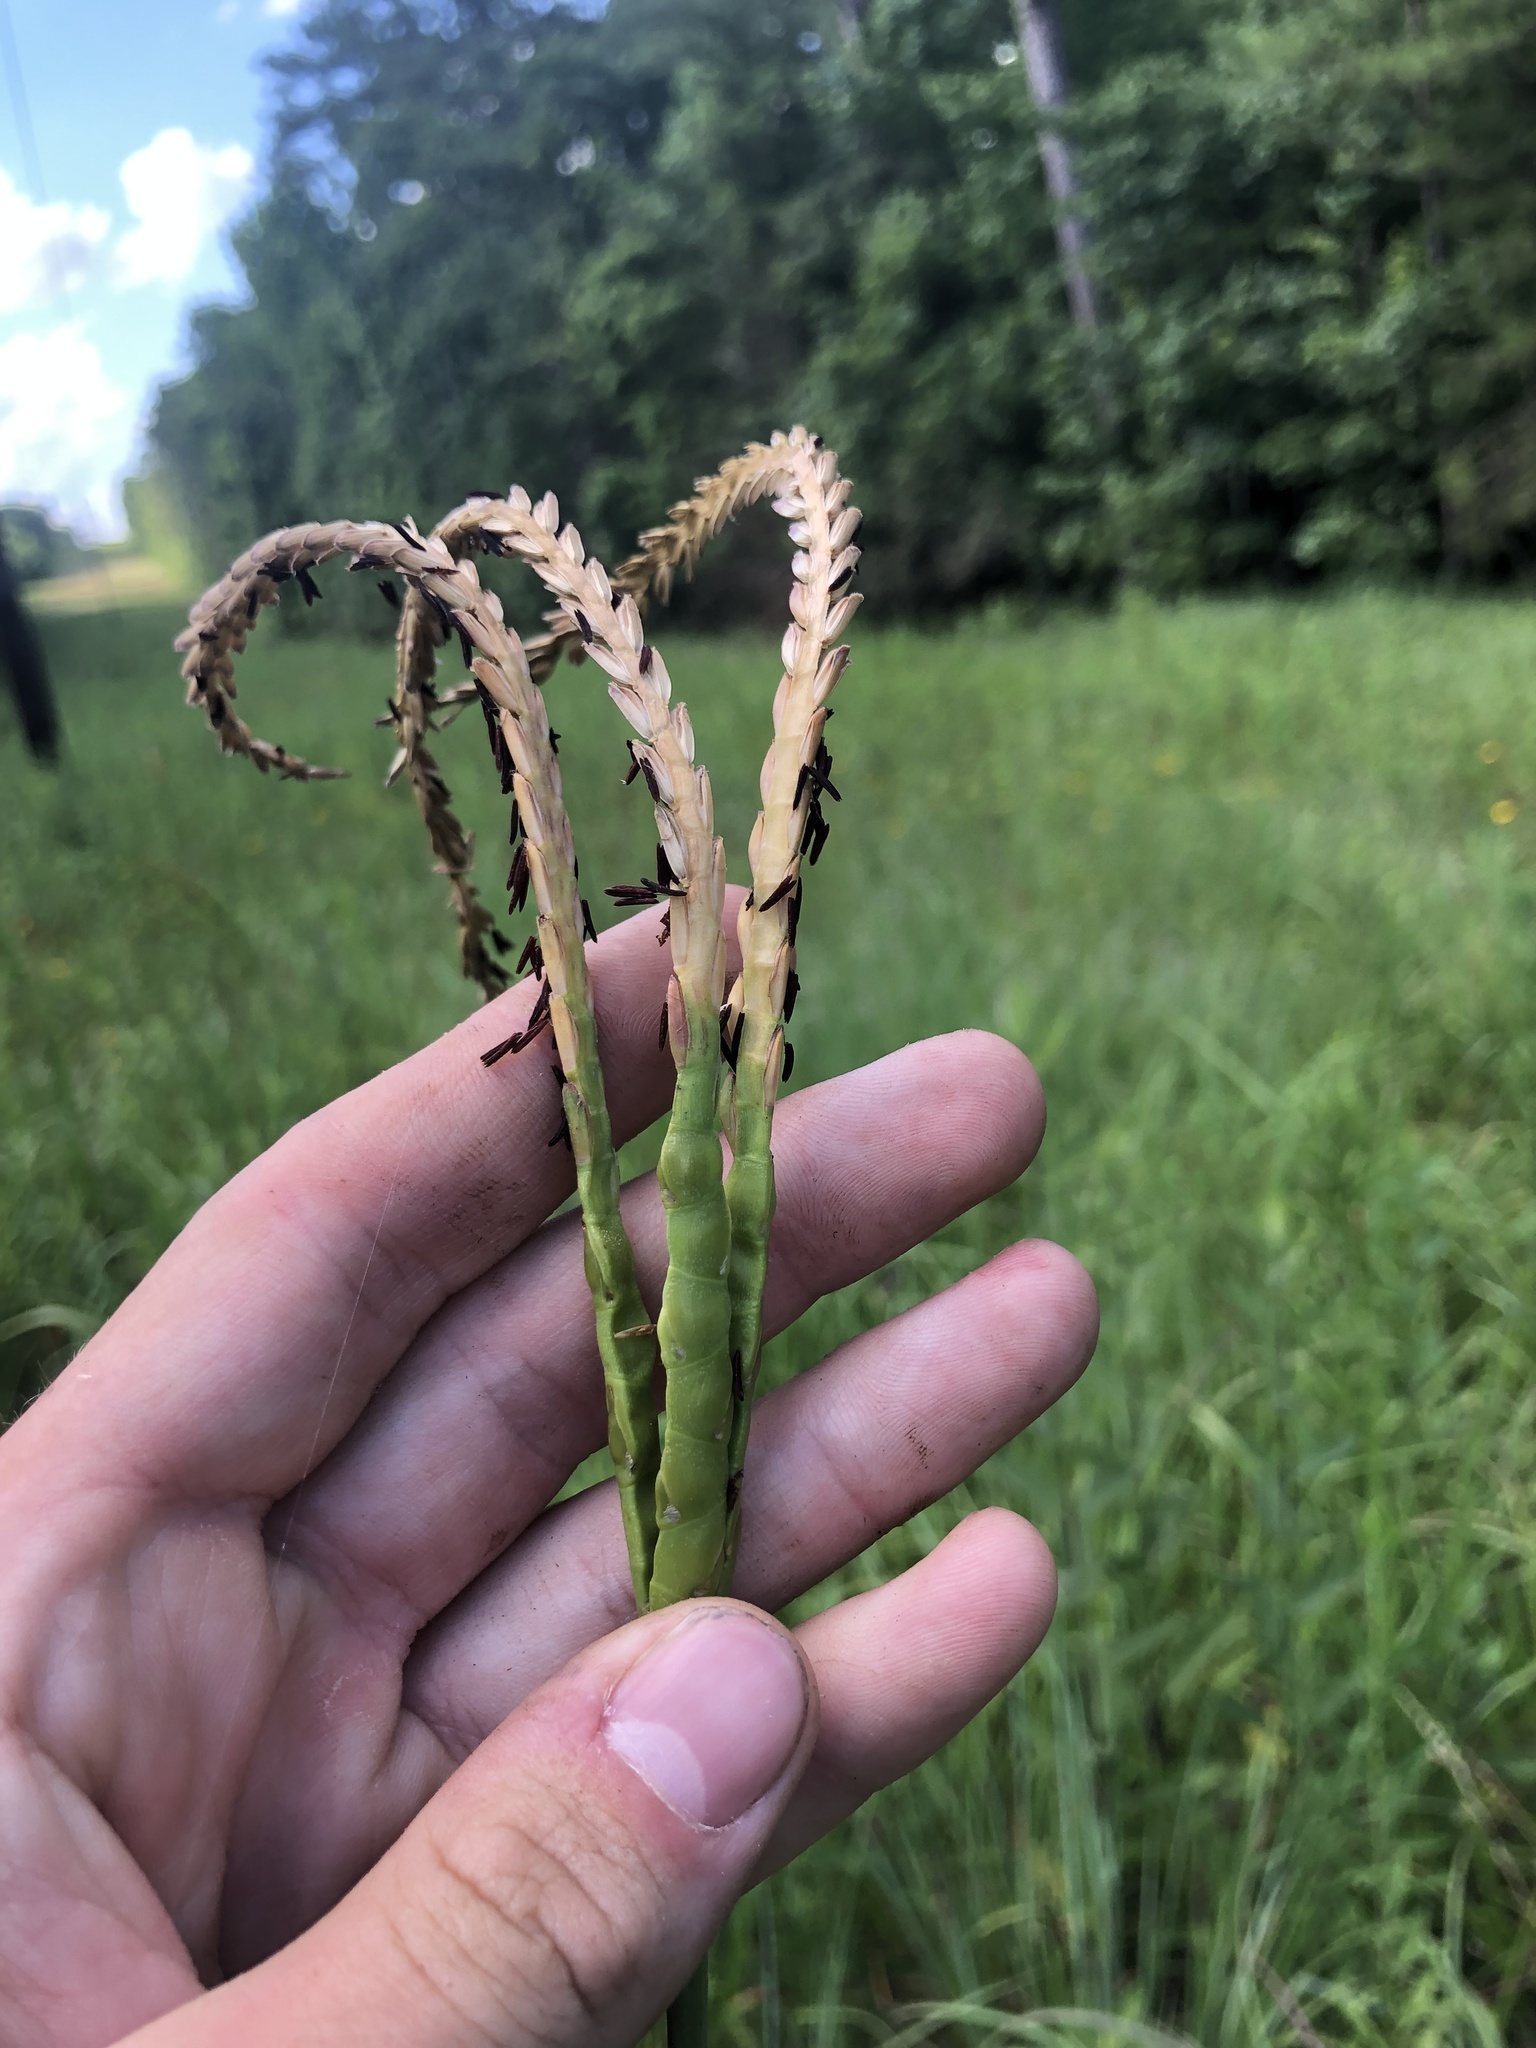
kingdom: Plantae
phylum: Tracheophyta
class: Liliopsida
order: Poales
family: Poaceae
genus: Tripsacum
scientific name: Tripsacum dactyloides
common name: Buffalo-grass
